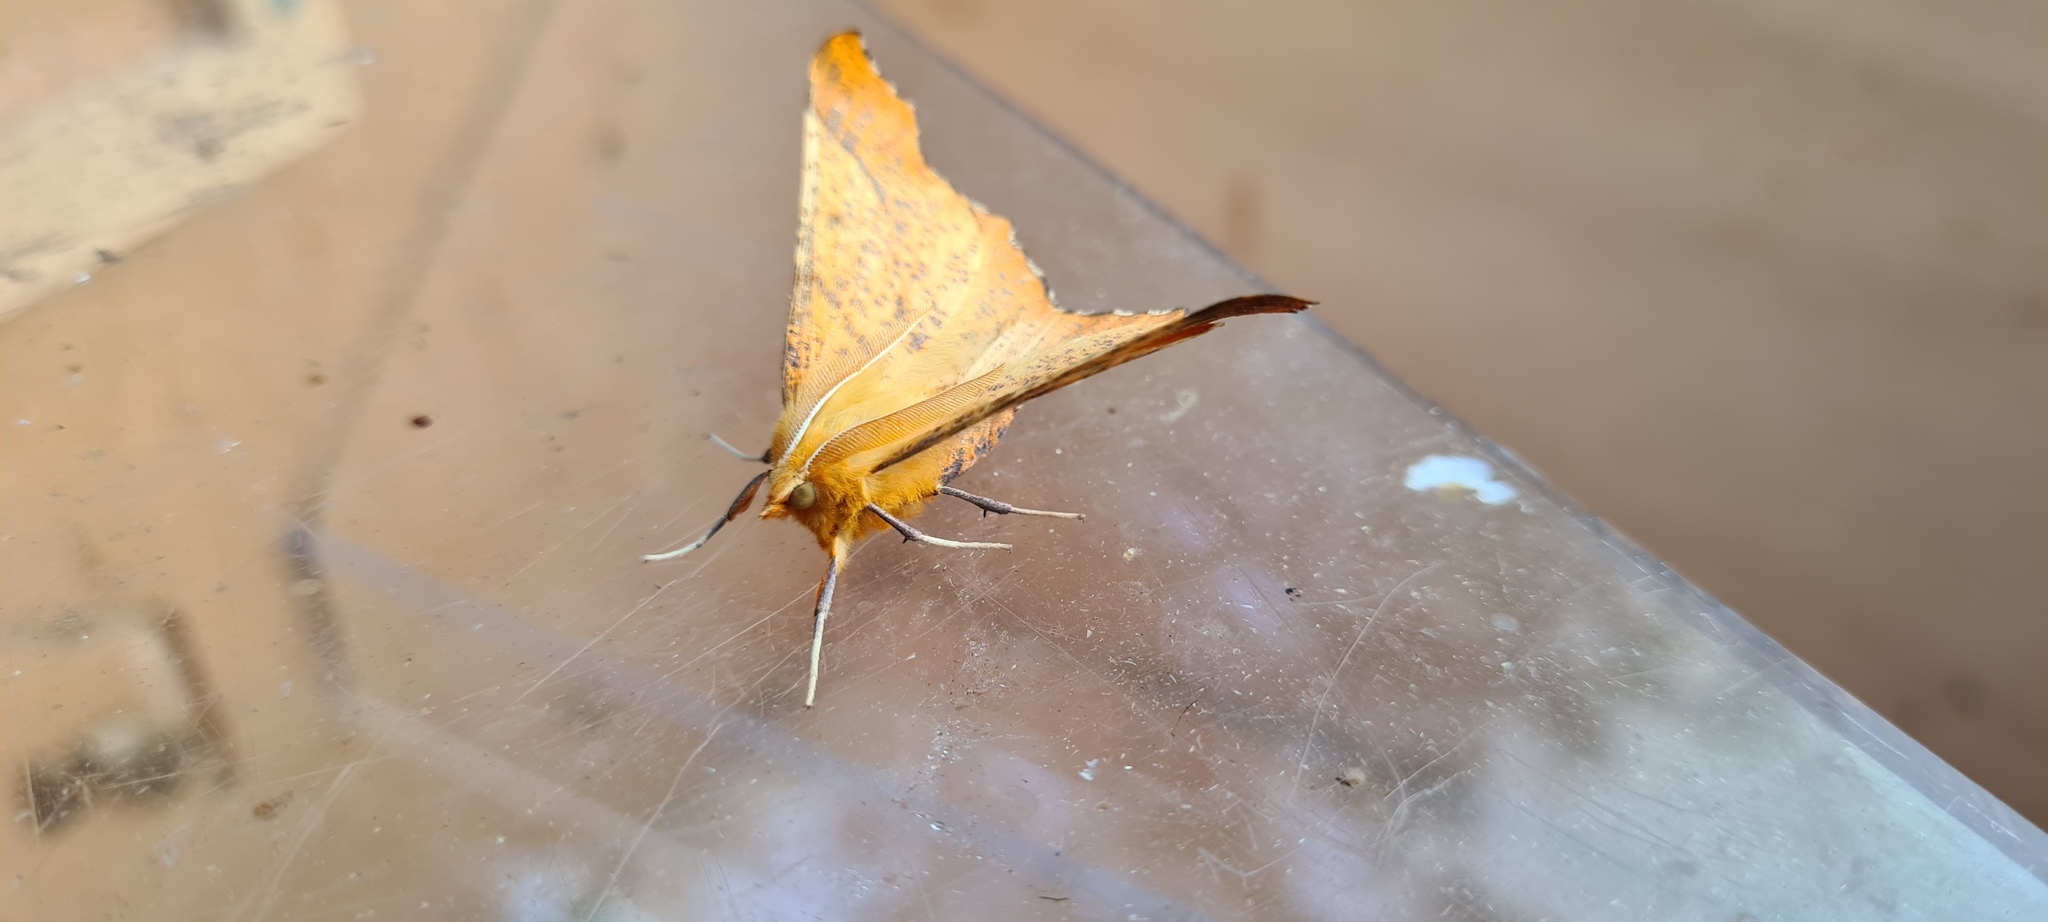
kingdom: Animalia
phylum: Arthropoda
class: Insecta
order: Lepidoptera
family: Geometridae
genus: Ennomos
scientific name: Ennomos autumnaria
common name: Large thorn
